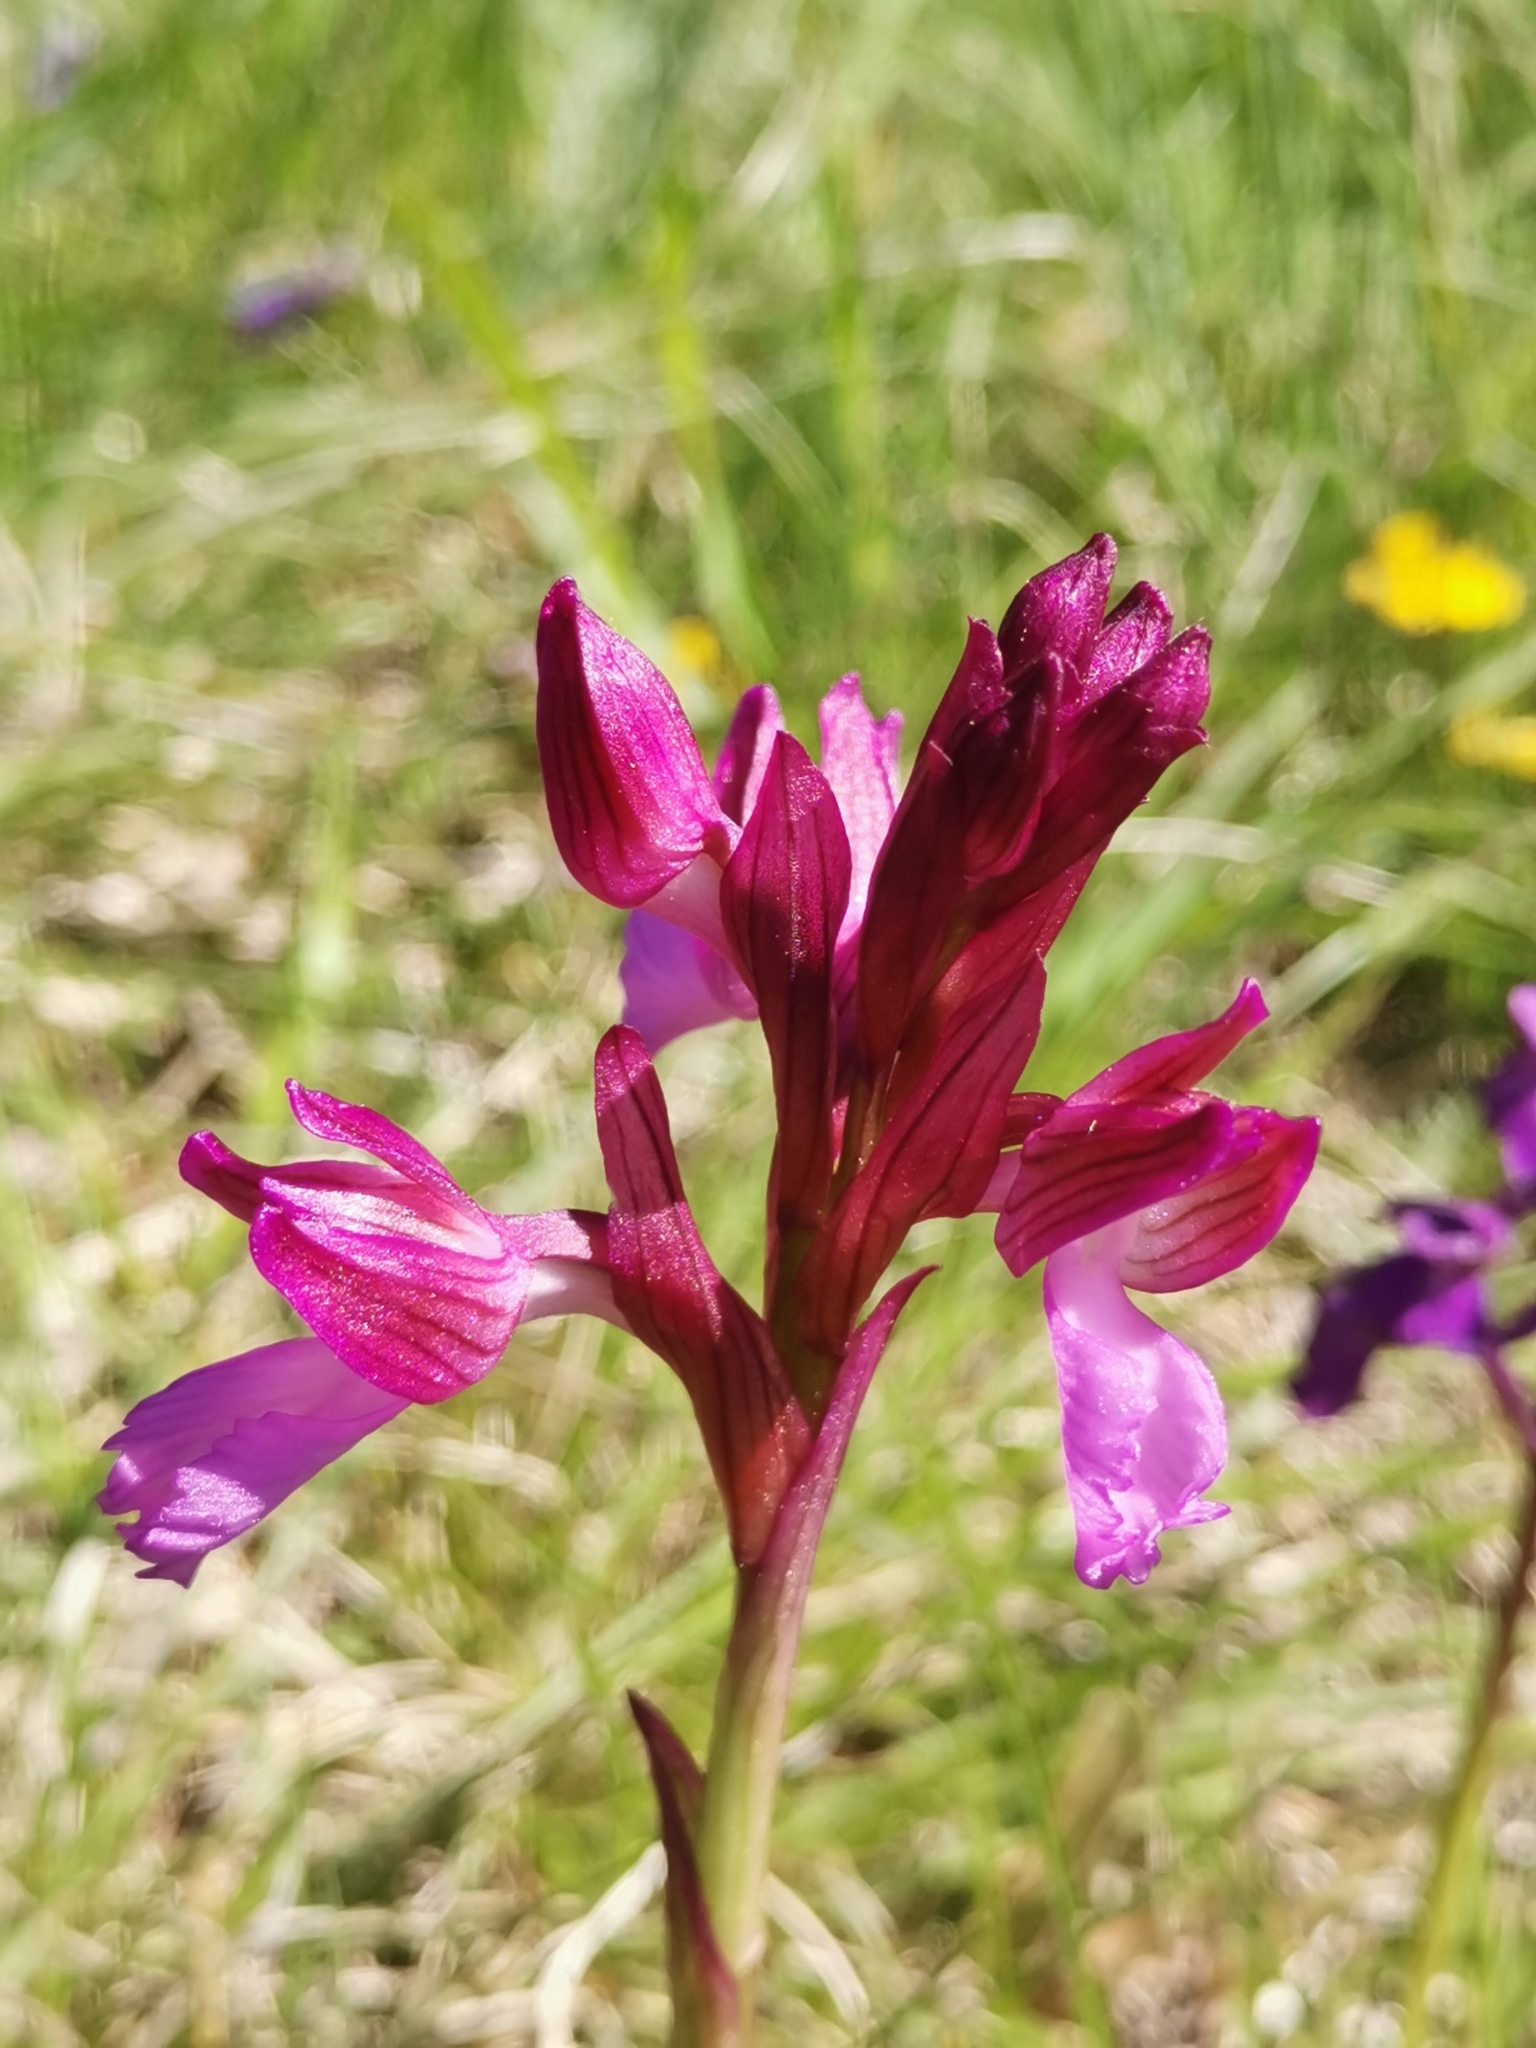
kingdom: Plantae
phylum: Tracheophyta
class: Liliopsida
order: Asparagales
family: Orchidaceae
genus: Anacamptis
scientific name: Anacamptis papilionacea
